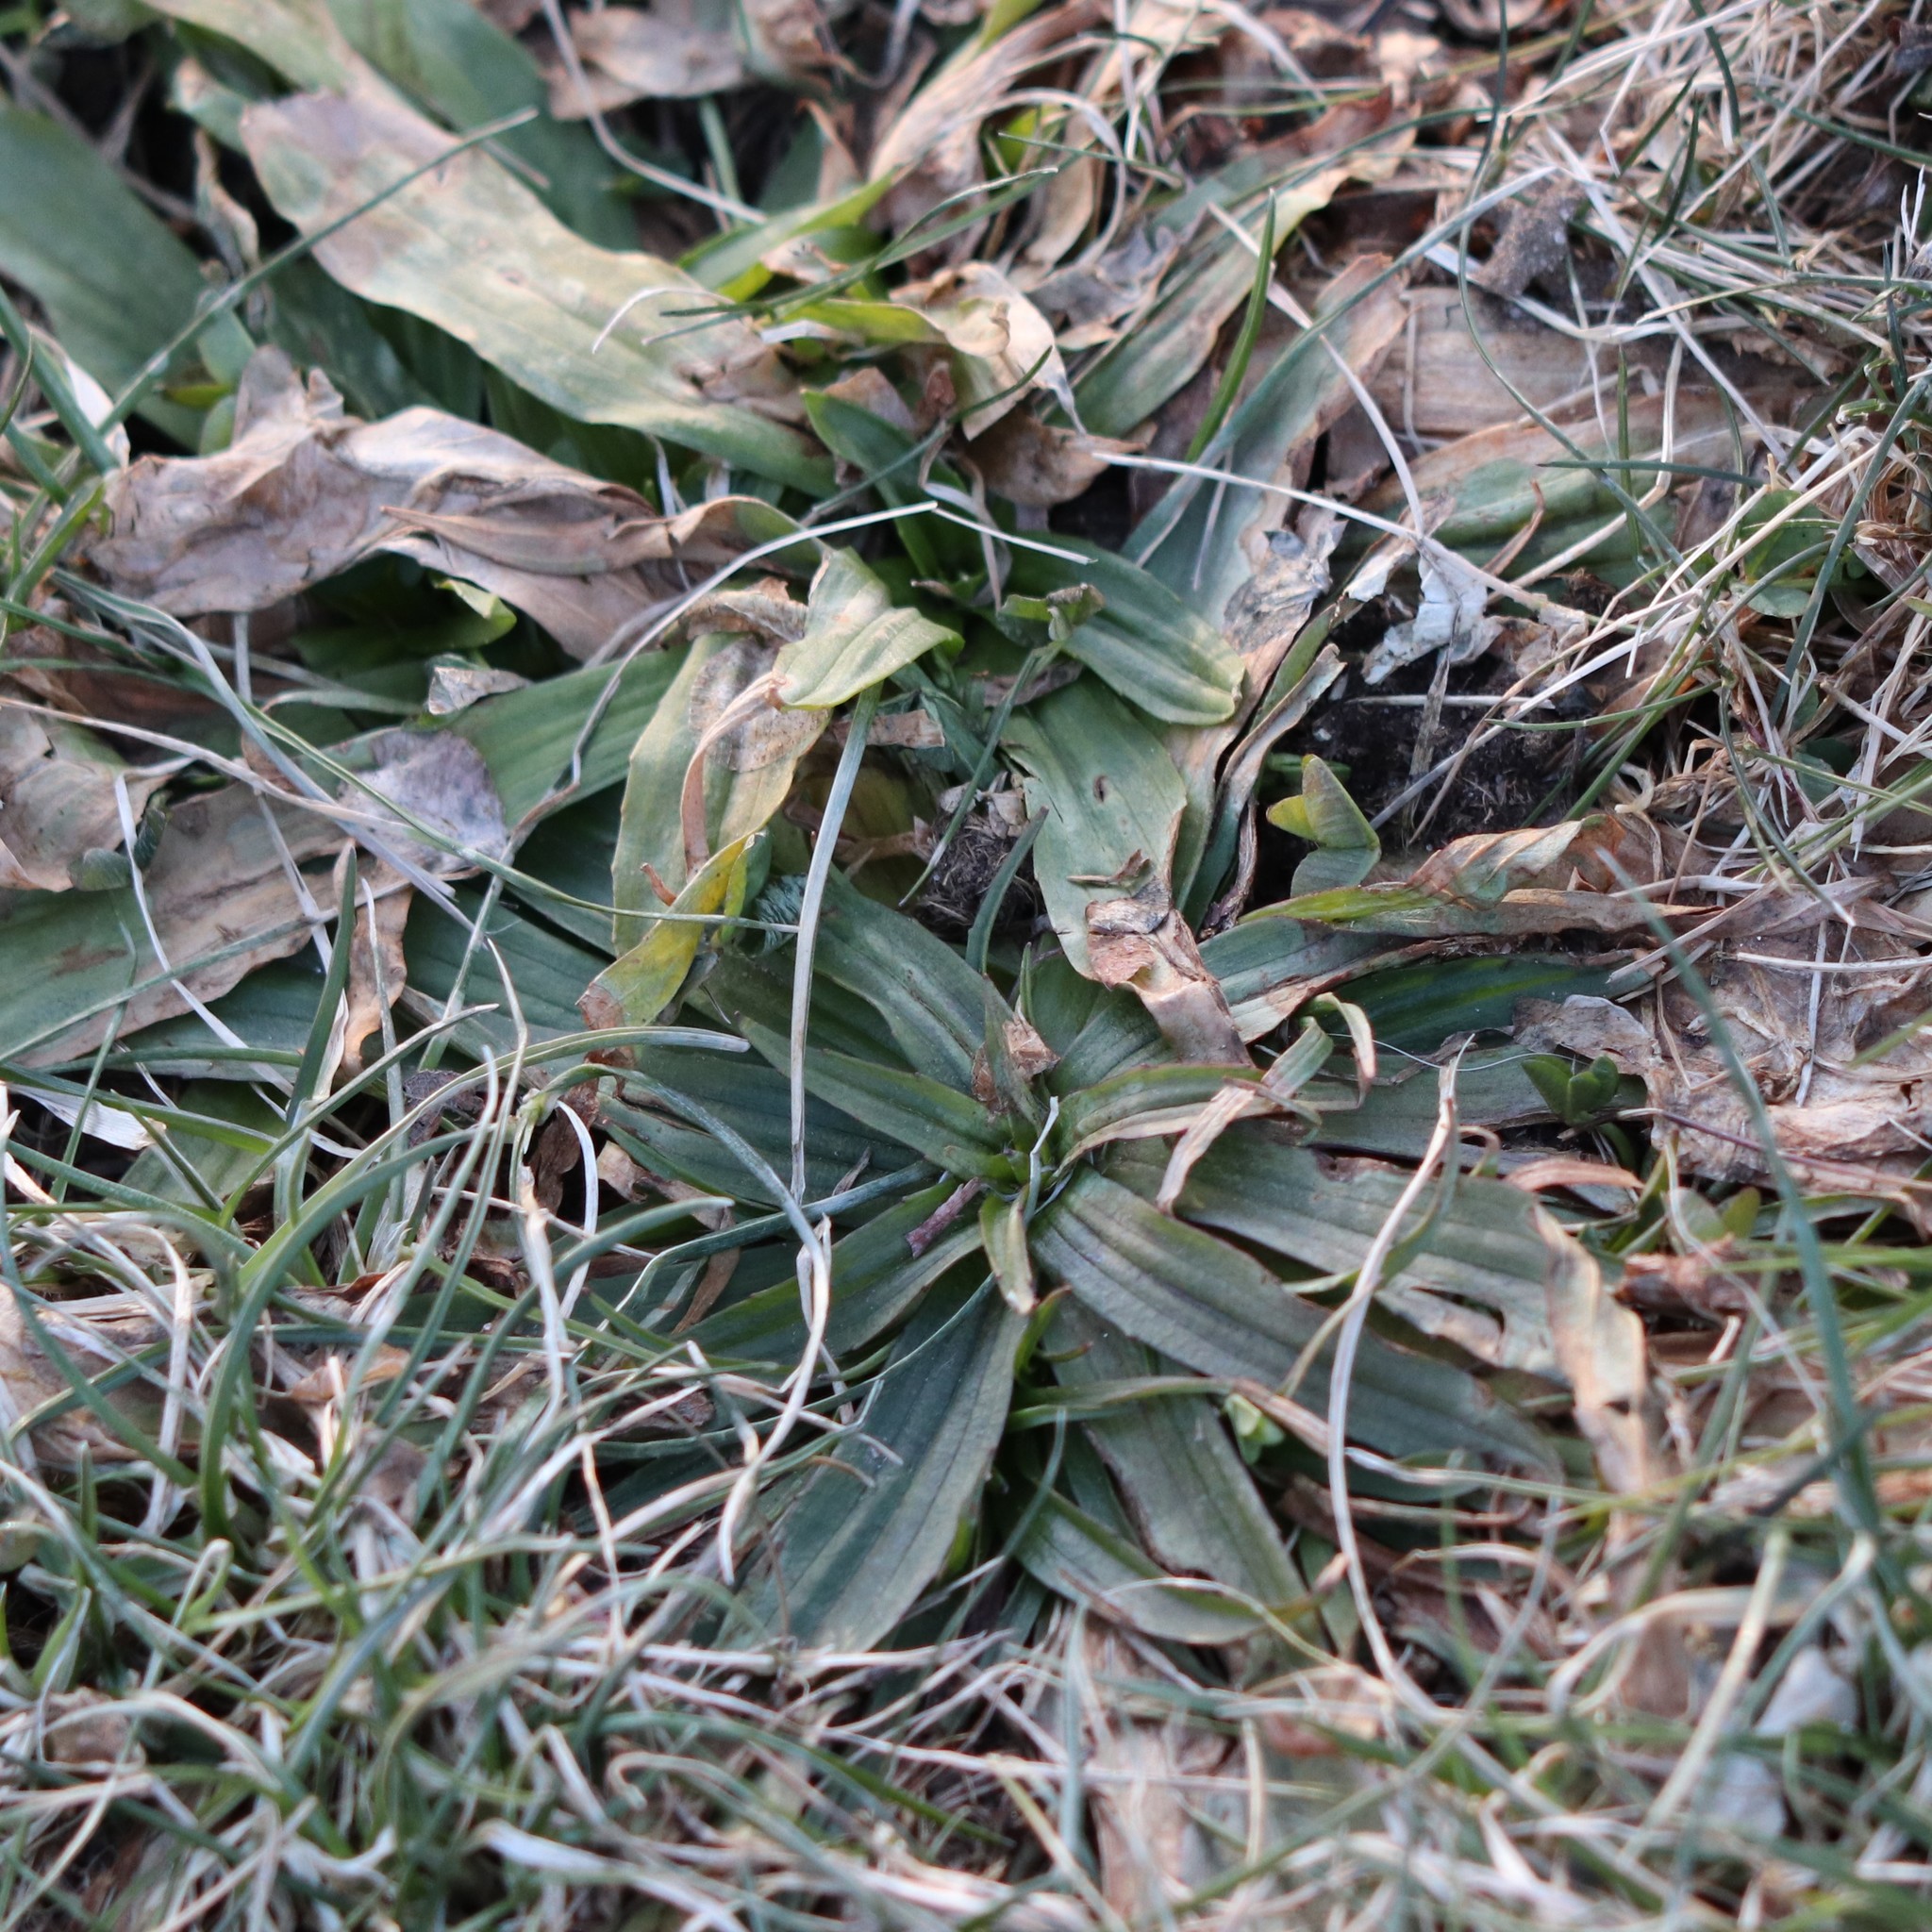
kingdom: Plantae
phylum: Tracheophyta
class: Magnoliopsida
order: Lamiales
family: Plantaginaceae
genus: Plantago
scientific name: Plantago lanceolata
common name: Ribwort plantain
